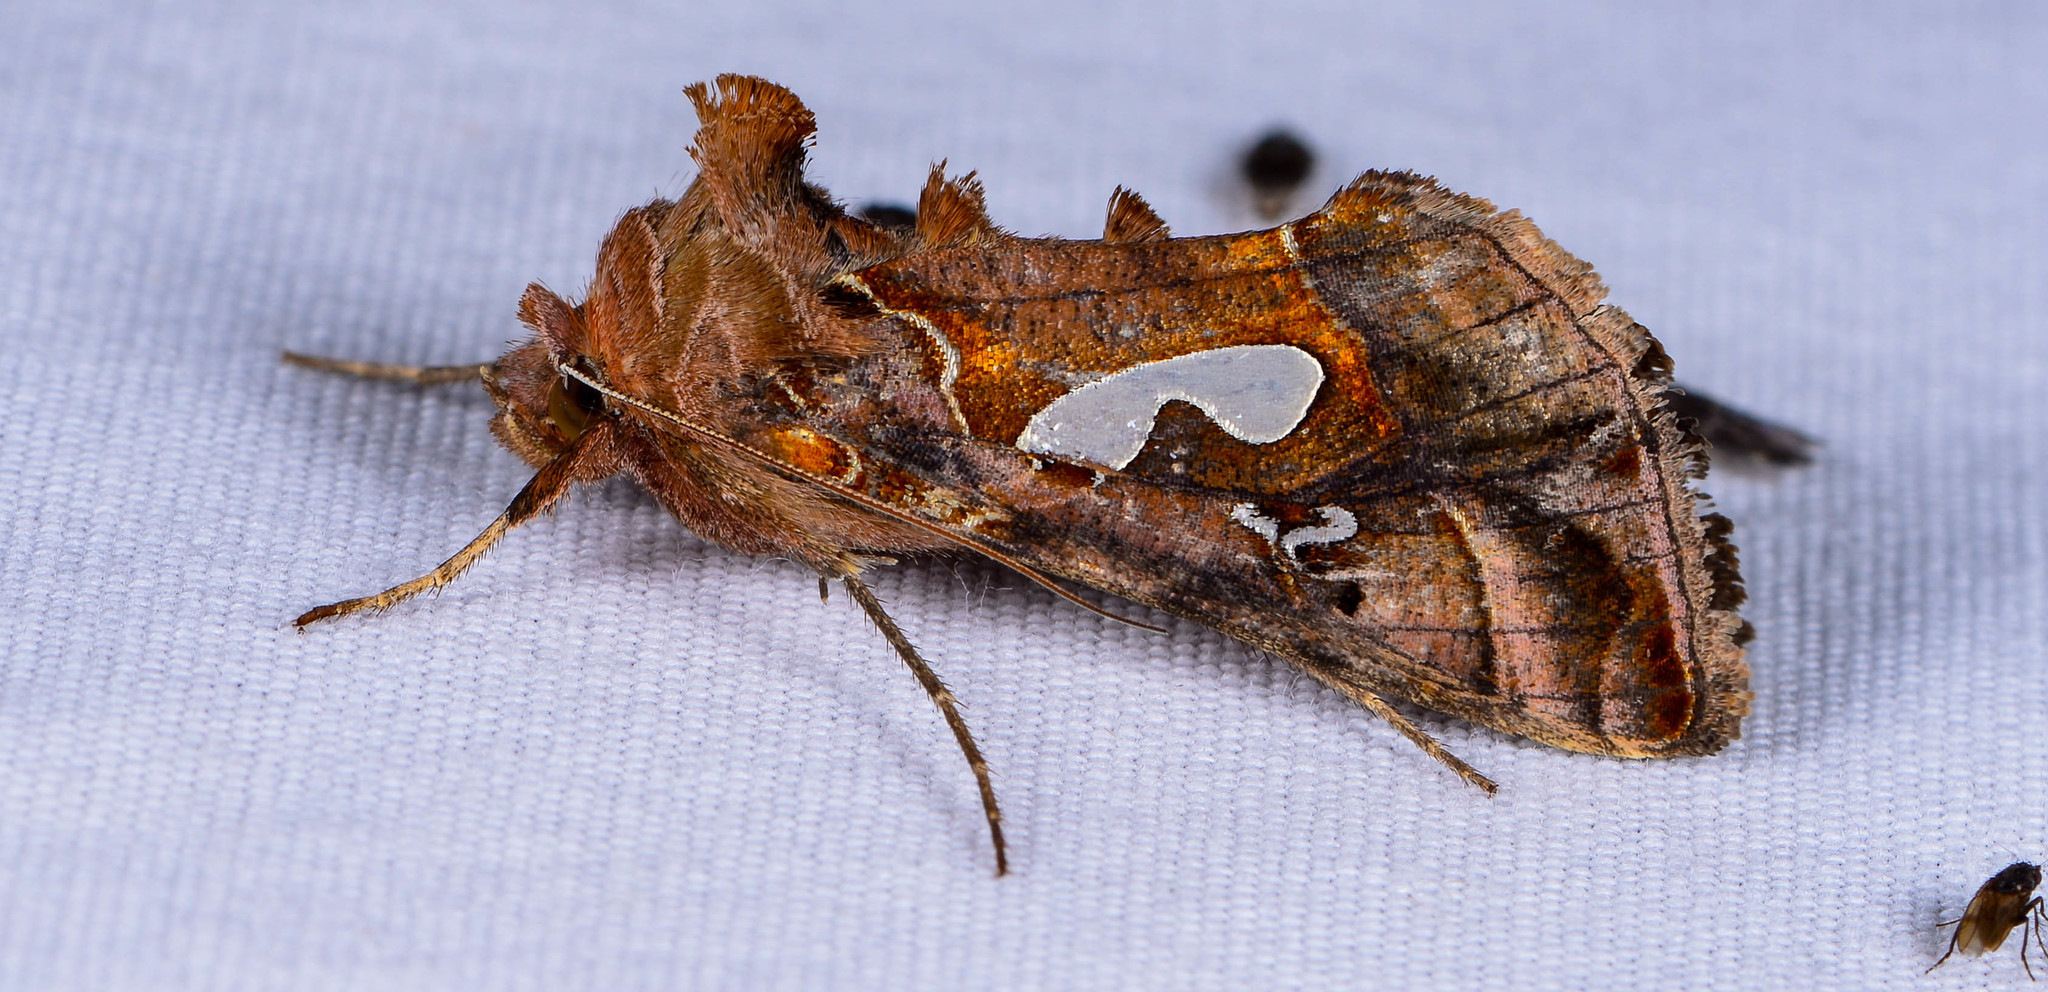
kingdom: Animalia
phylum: Arthropoda
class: Insecta
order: Lepidoptera
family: Noctuidae
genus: Megalographa
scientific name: Megalographa biloba
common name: Cutworm
